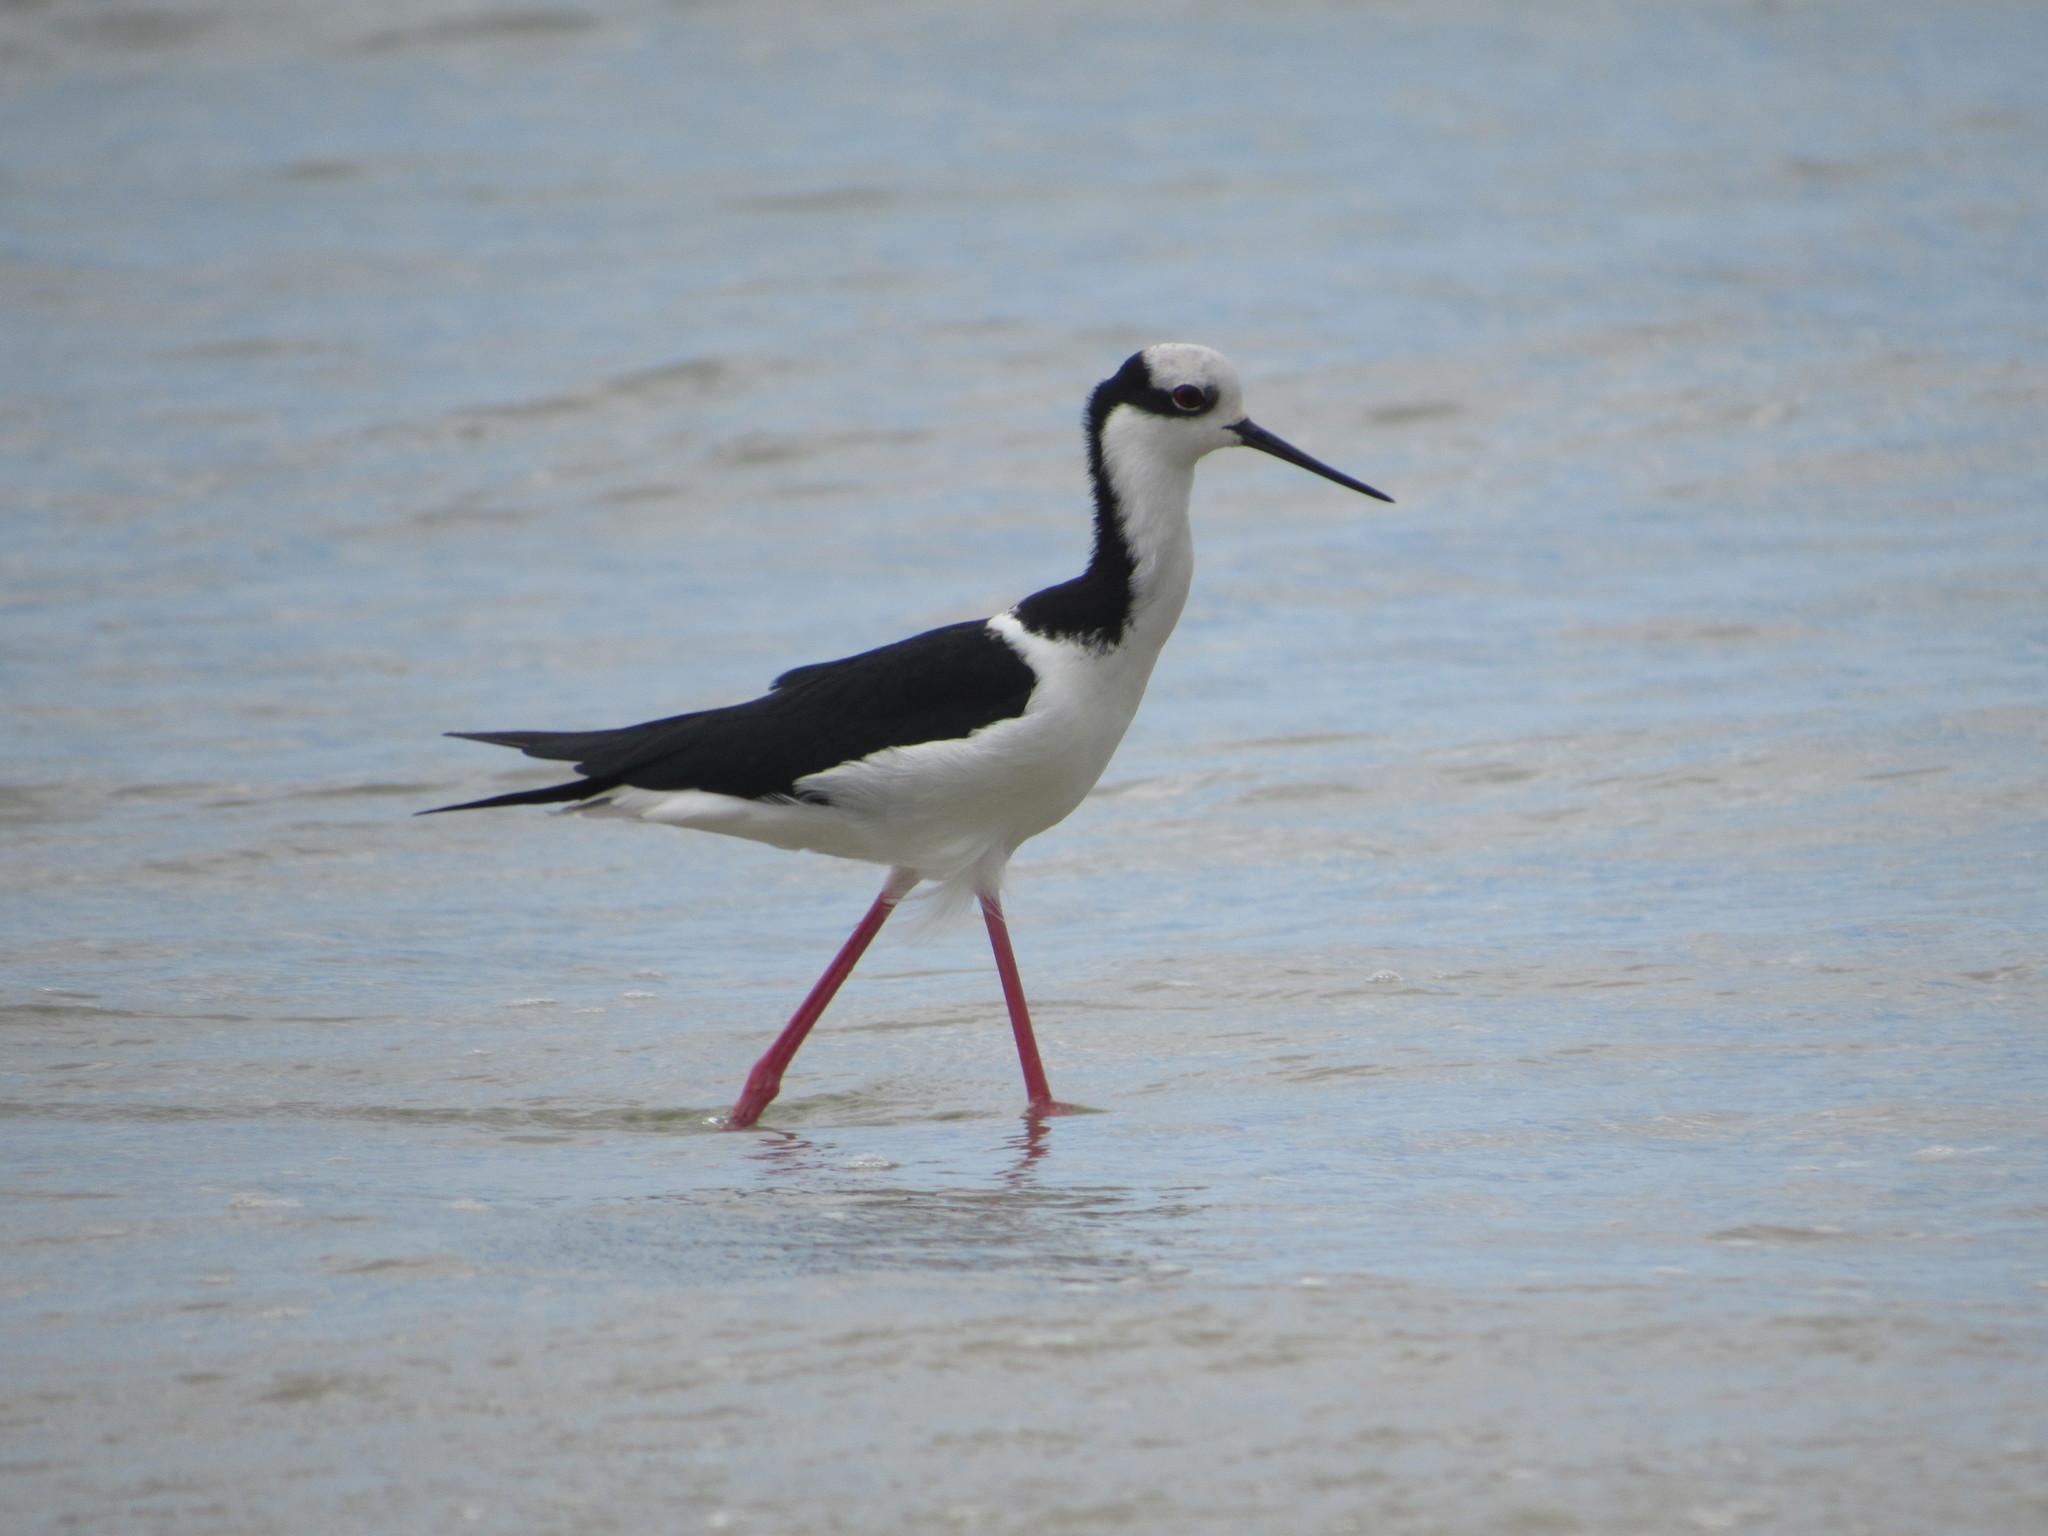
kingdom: Animalia
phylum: Chordata
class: Aves
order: Charadriiformes
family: Recurvirostridae
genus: Himantopus
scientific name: Himantopus mexicanus
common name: Black-necked stilt
